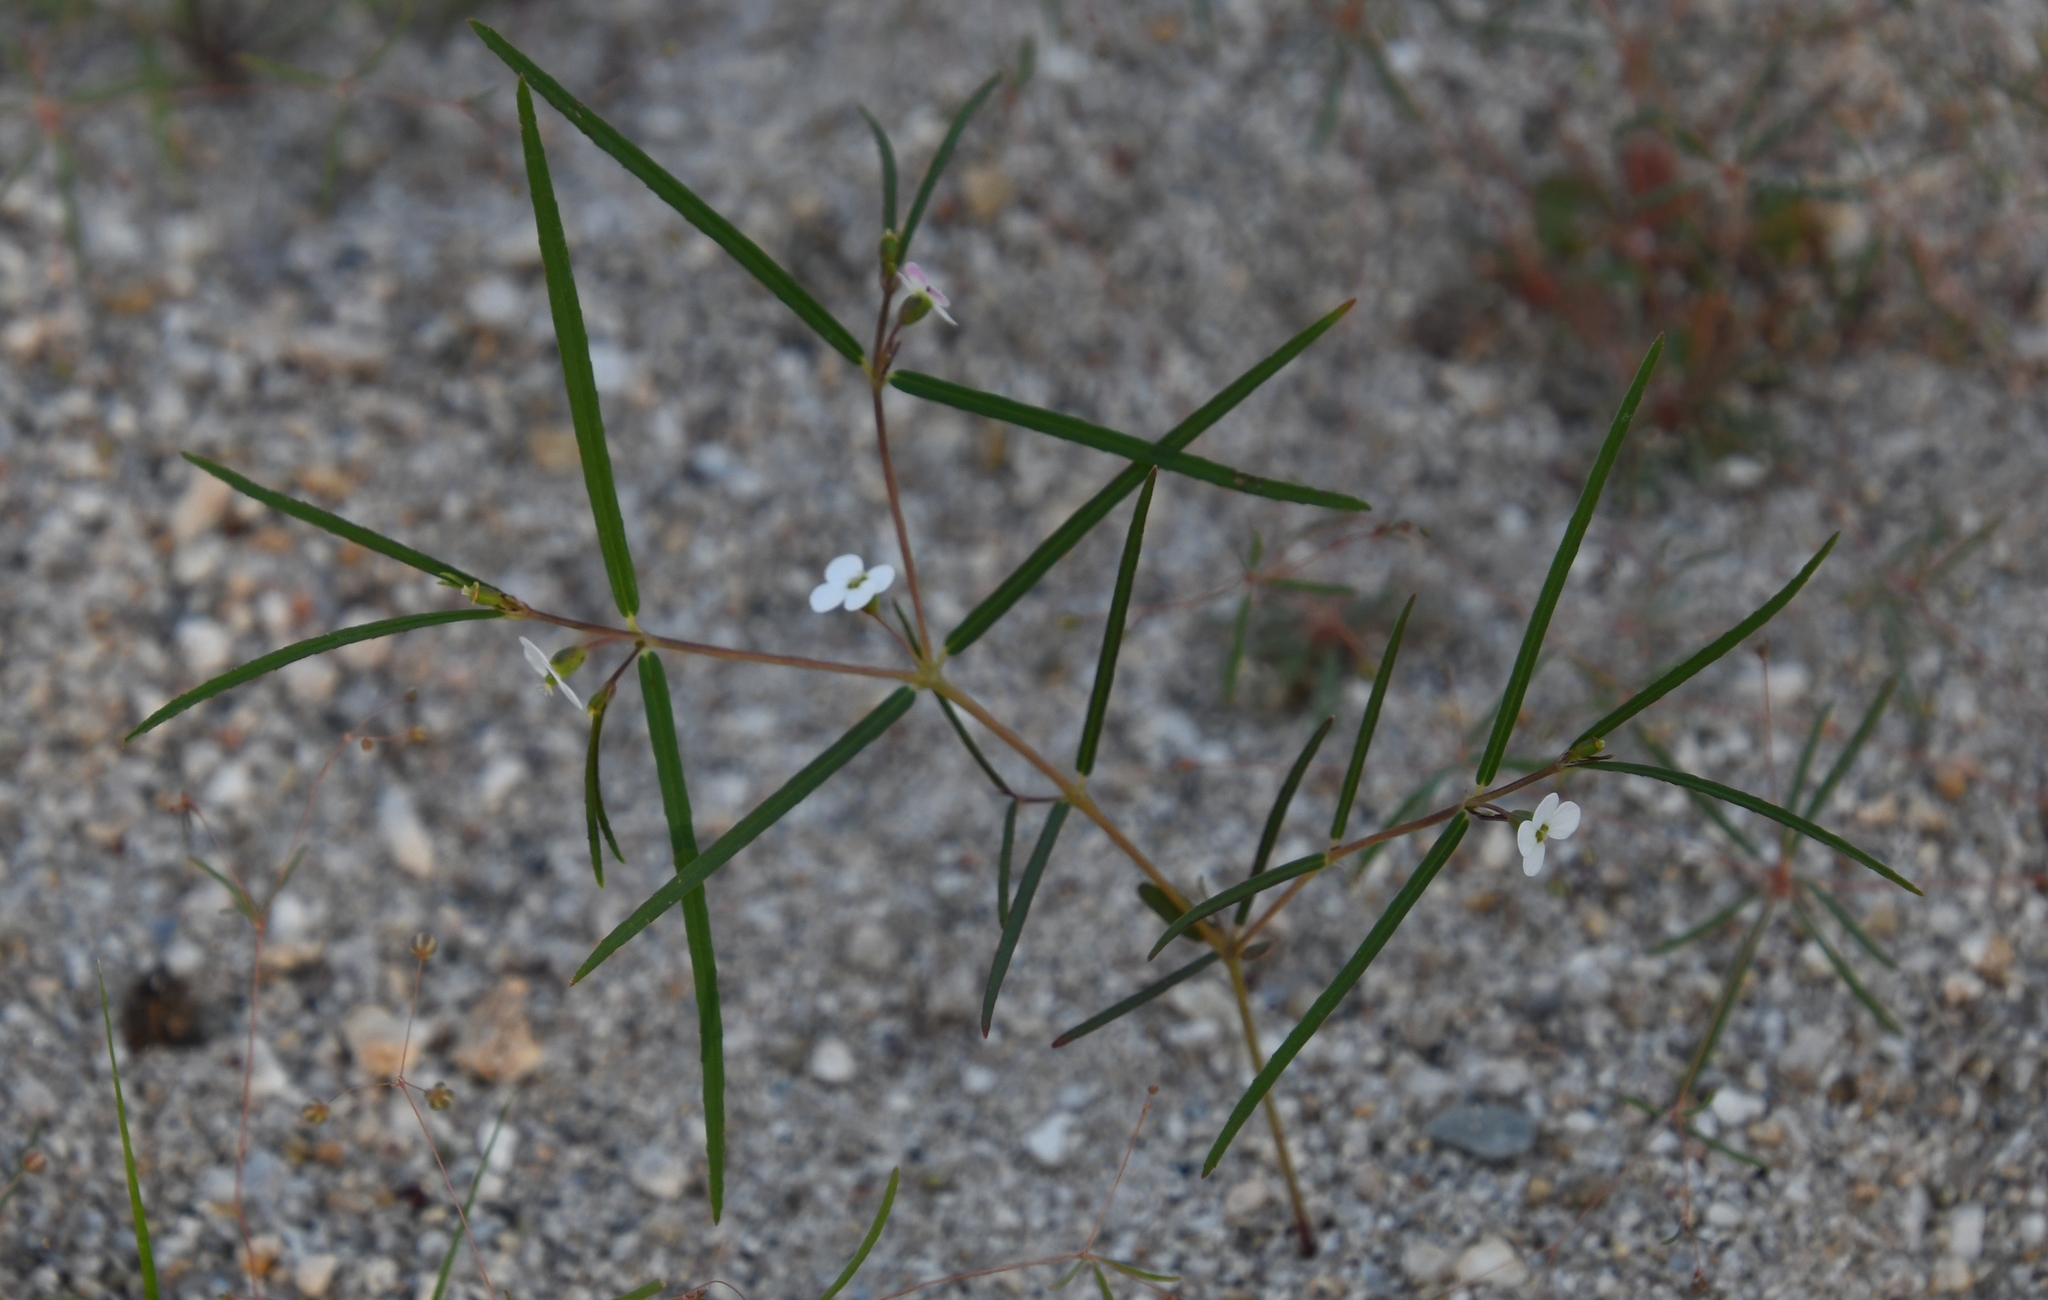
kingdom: Plantae
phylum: Tracheophyta
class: Magnoliopsida
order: Malpighiales
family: Euphorbiaceae
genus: Euphorbia
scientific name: Euphorbia florida
